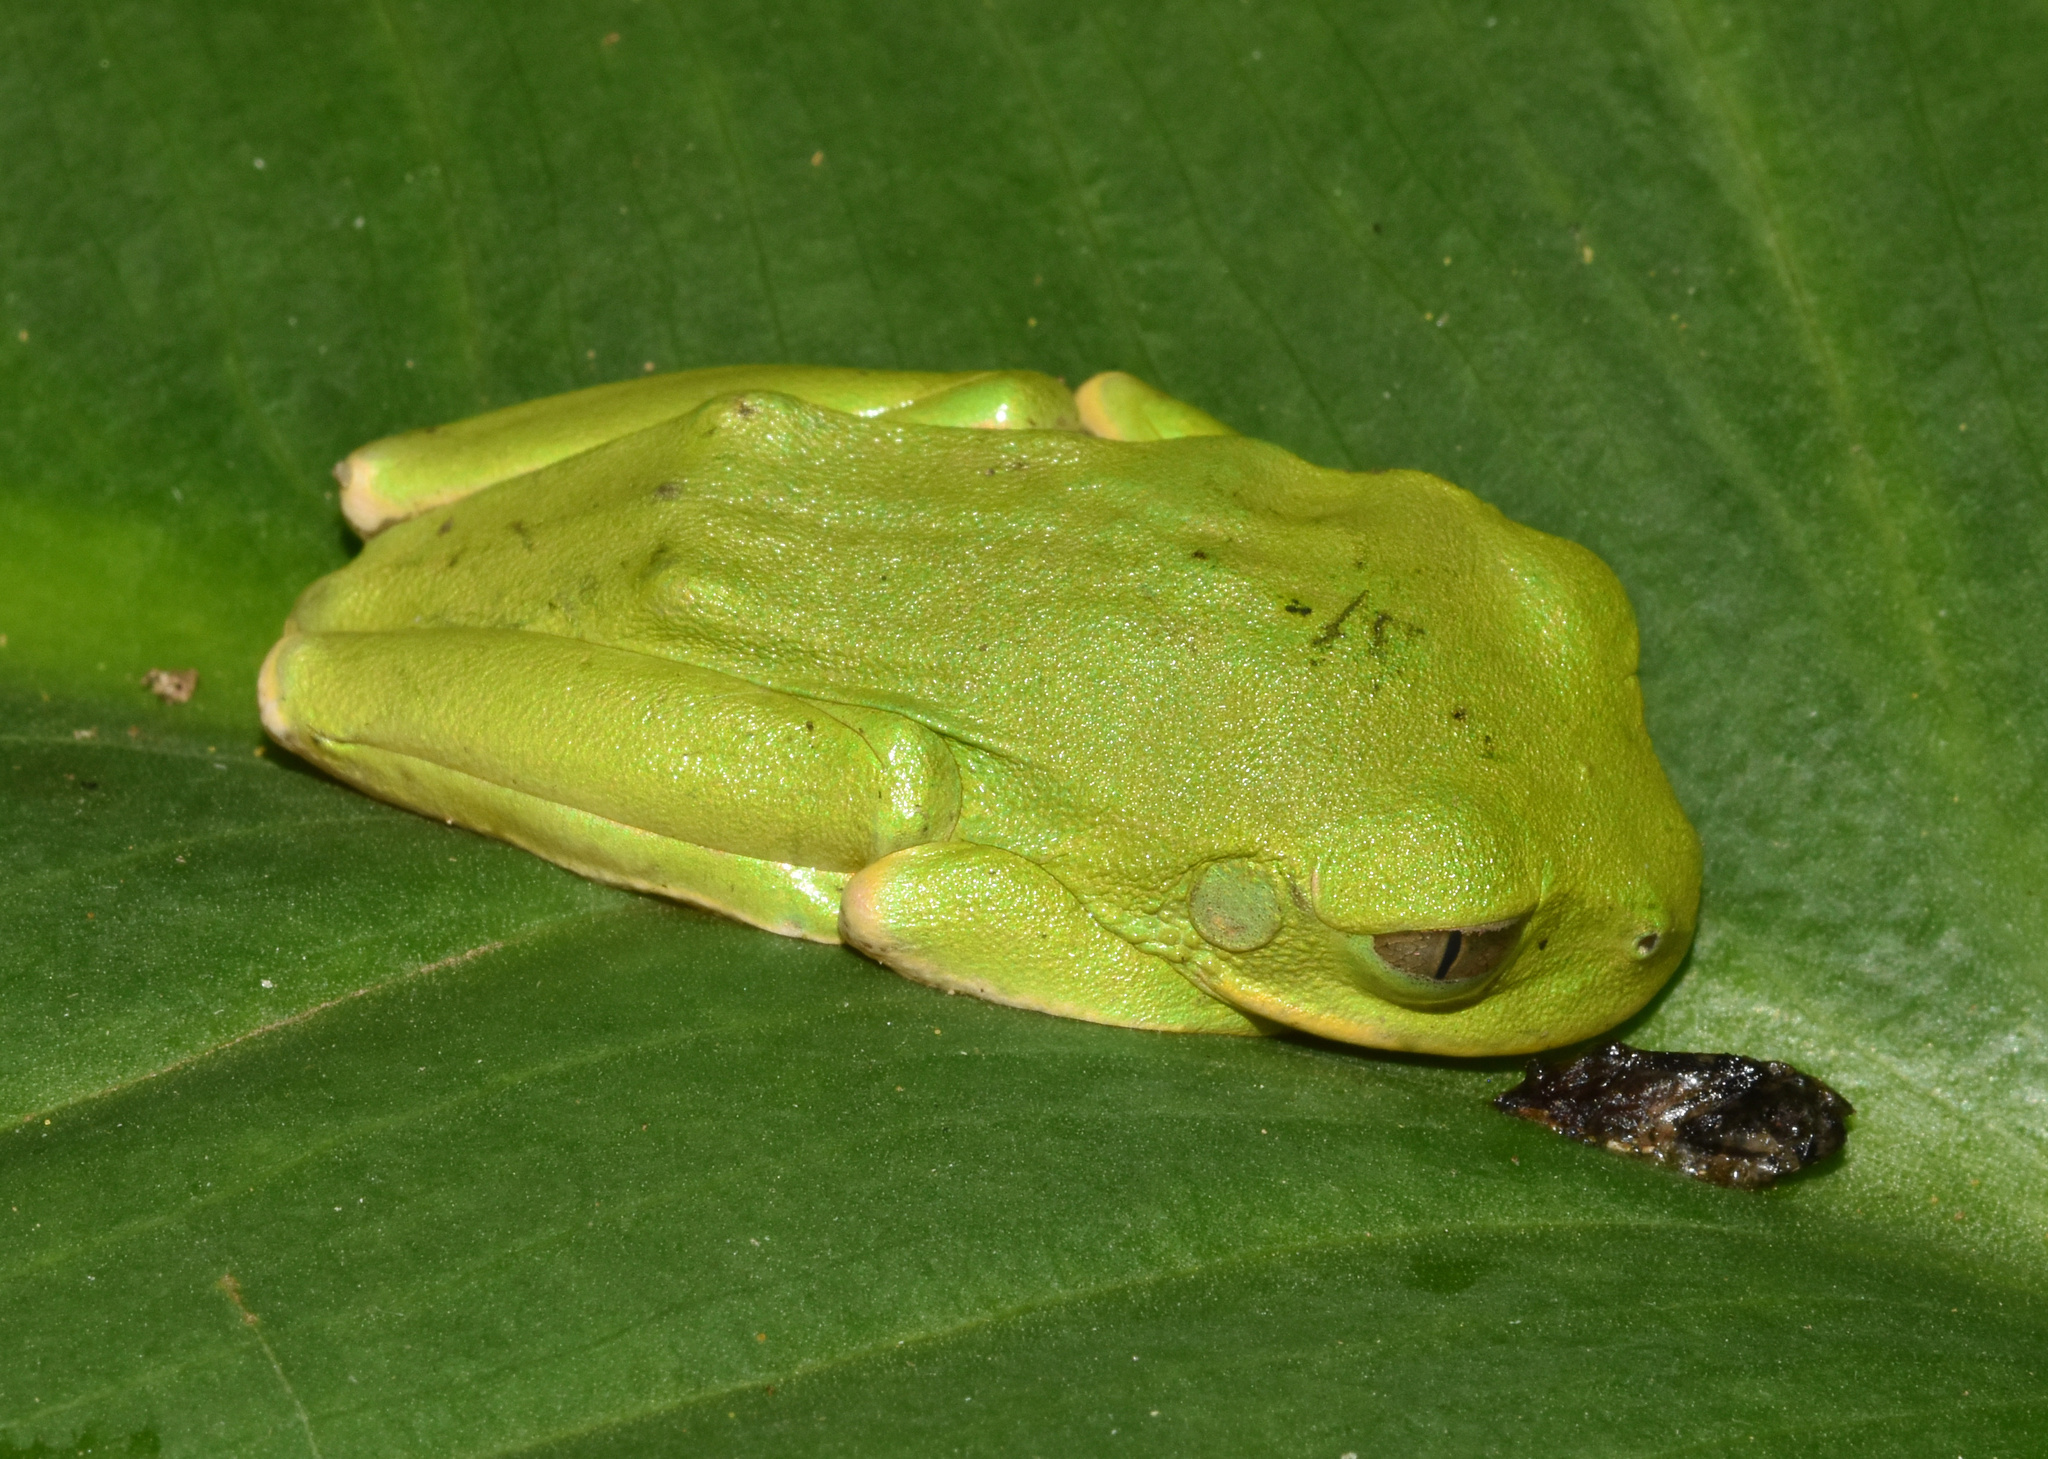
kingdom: Animalia
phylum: Chordata
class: Amphibia
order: Anura
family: Arthroleptidae
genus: Leptopelis
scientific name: Leptopelis natalensis
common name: Natal tree frog
